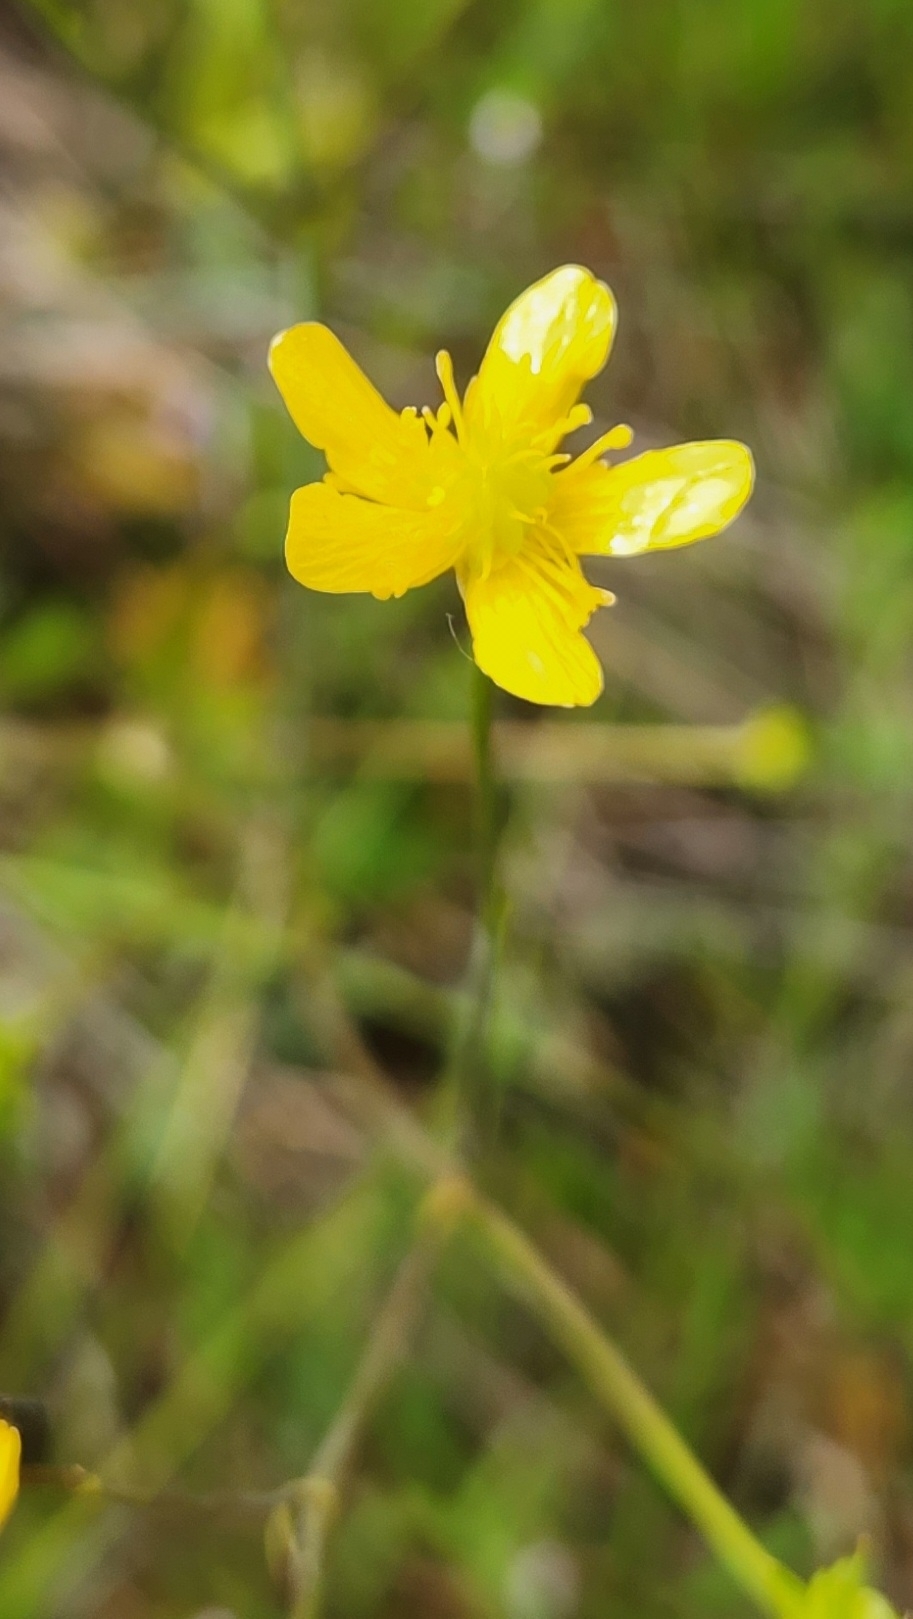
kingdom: Plantae
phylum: Tracheophyta
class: Magnoliopsida
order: Ranunculales
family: Ranunculaceae
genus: Ranunculus
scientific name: Ranunculus occidentalis
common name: Western buttercup
